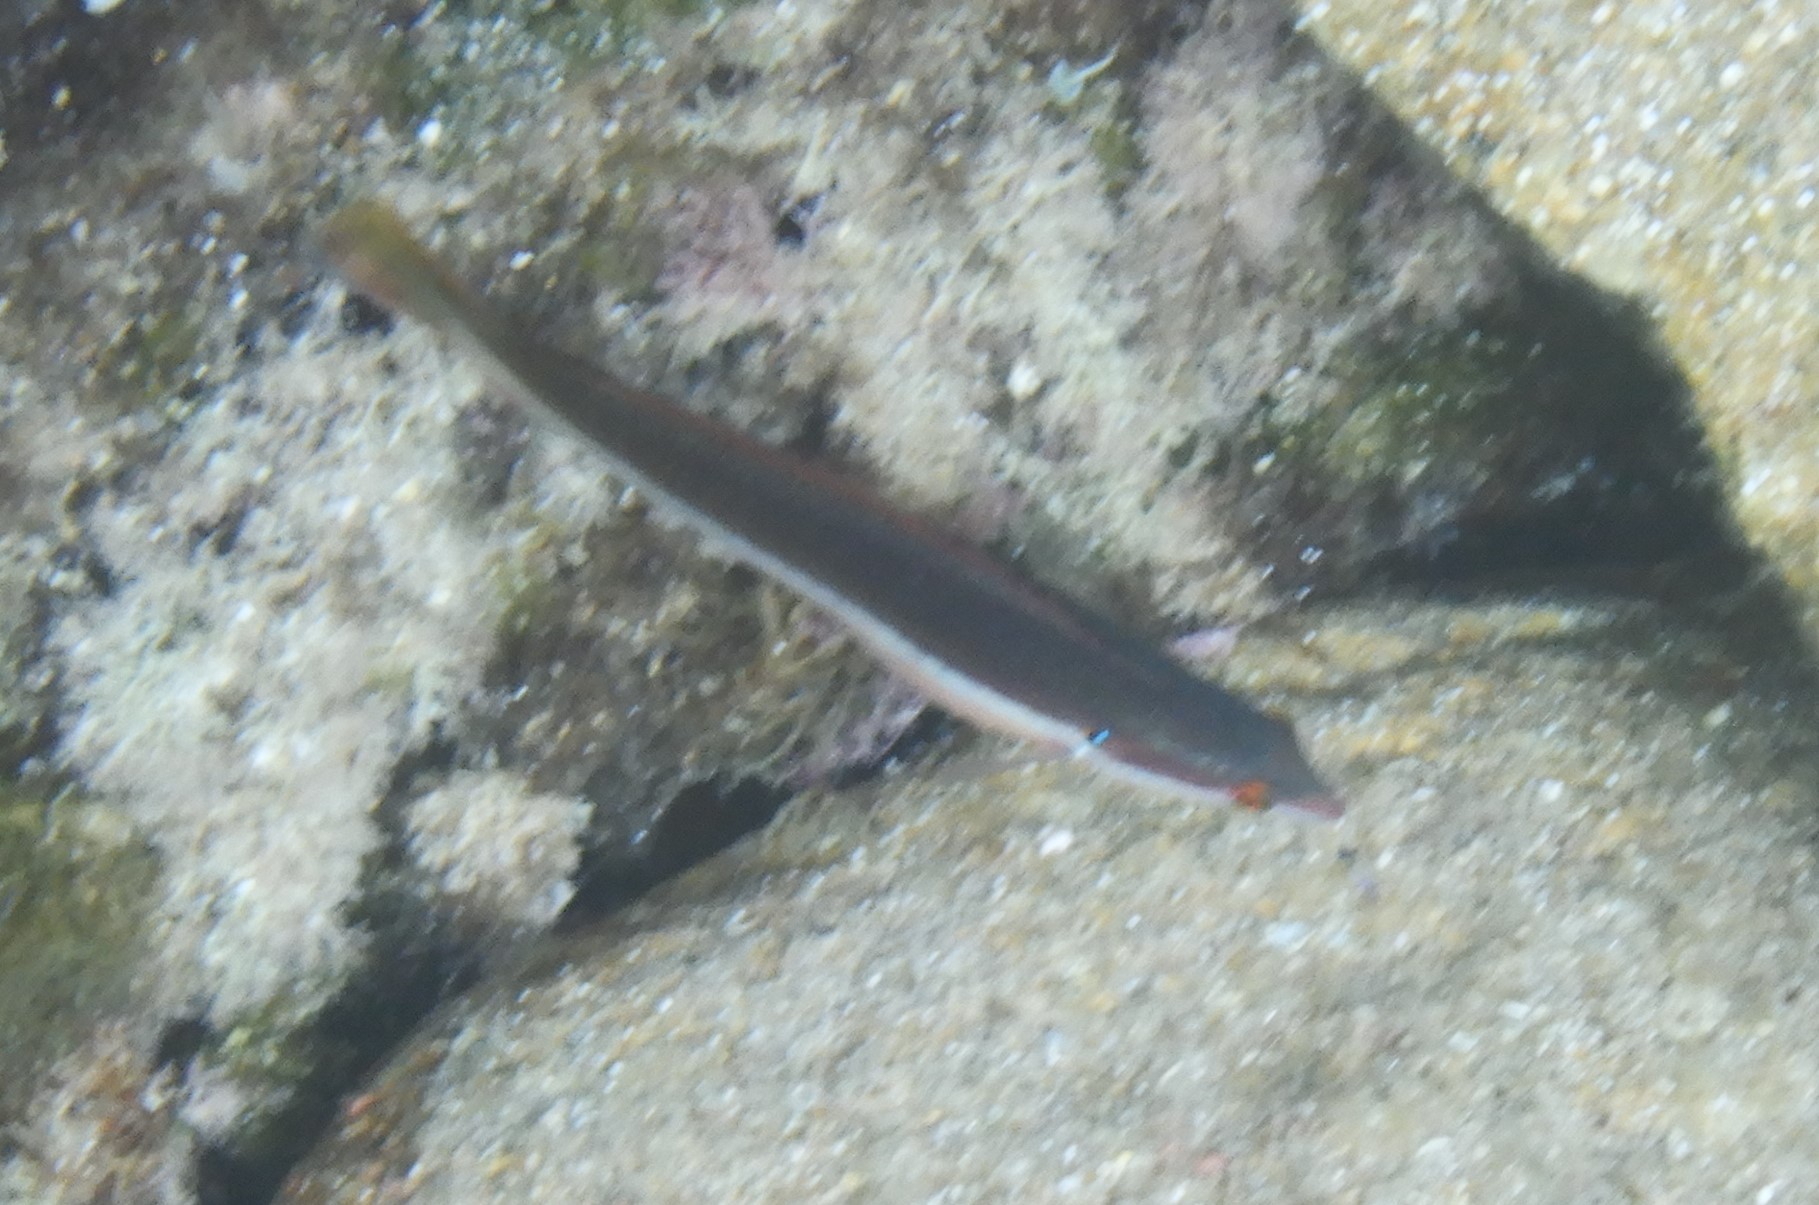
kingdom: Animalia
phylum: Chordata
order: Perciformes
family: Labridae
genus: Coris
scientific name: Coris julis
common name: Rainbow wrasse
